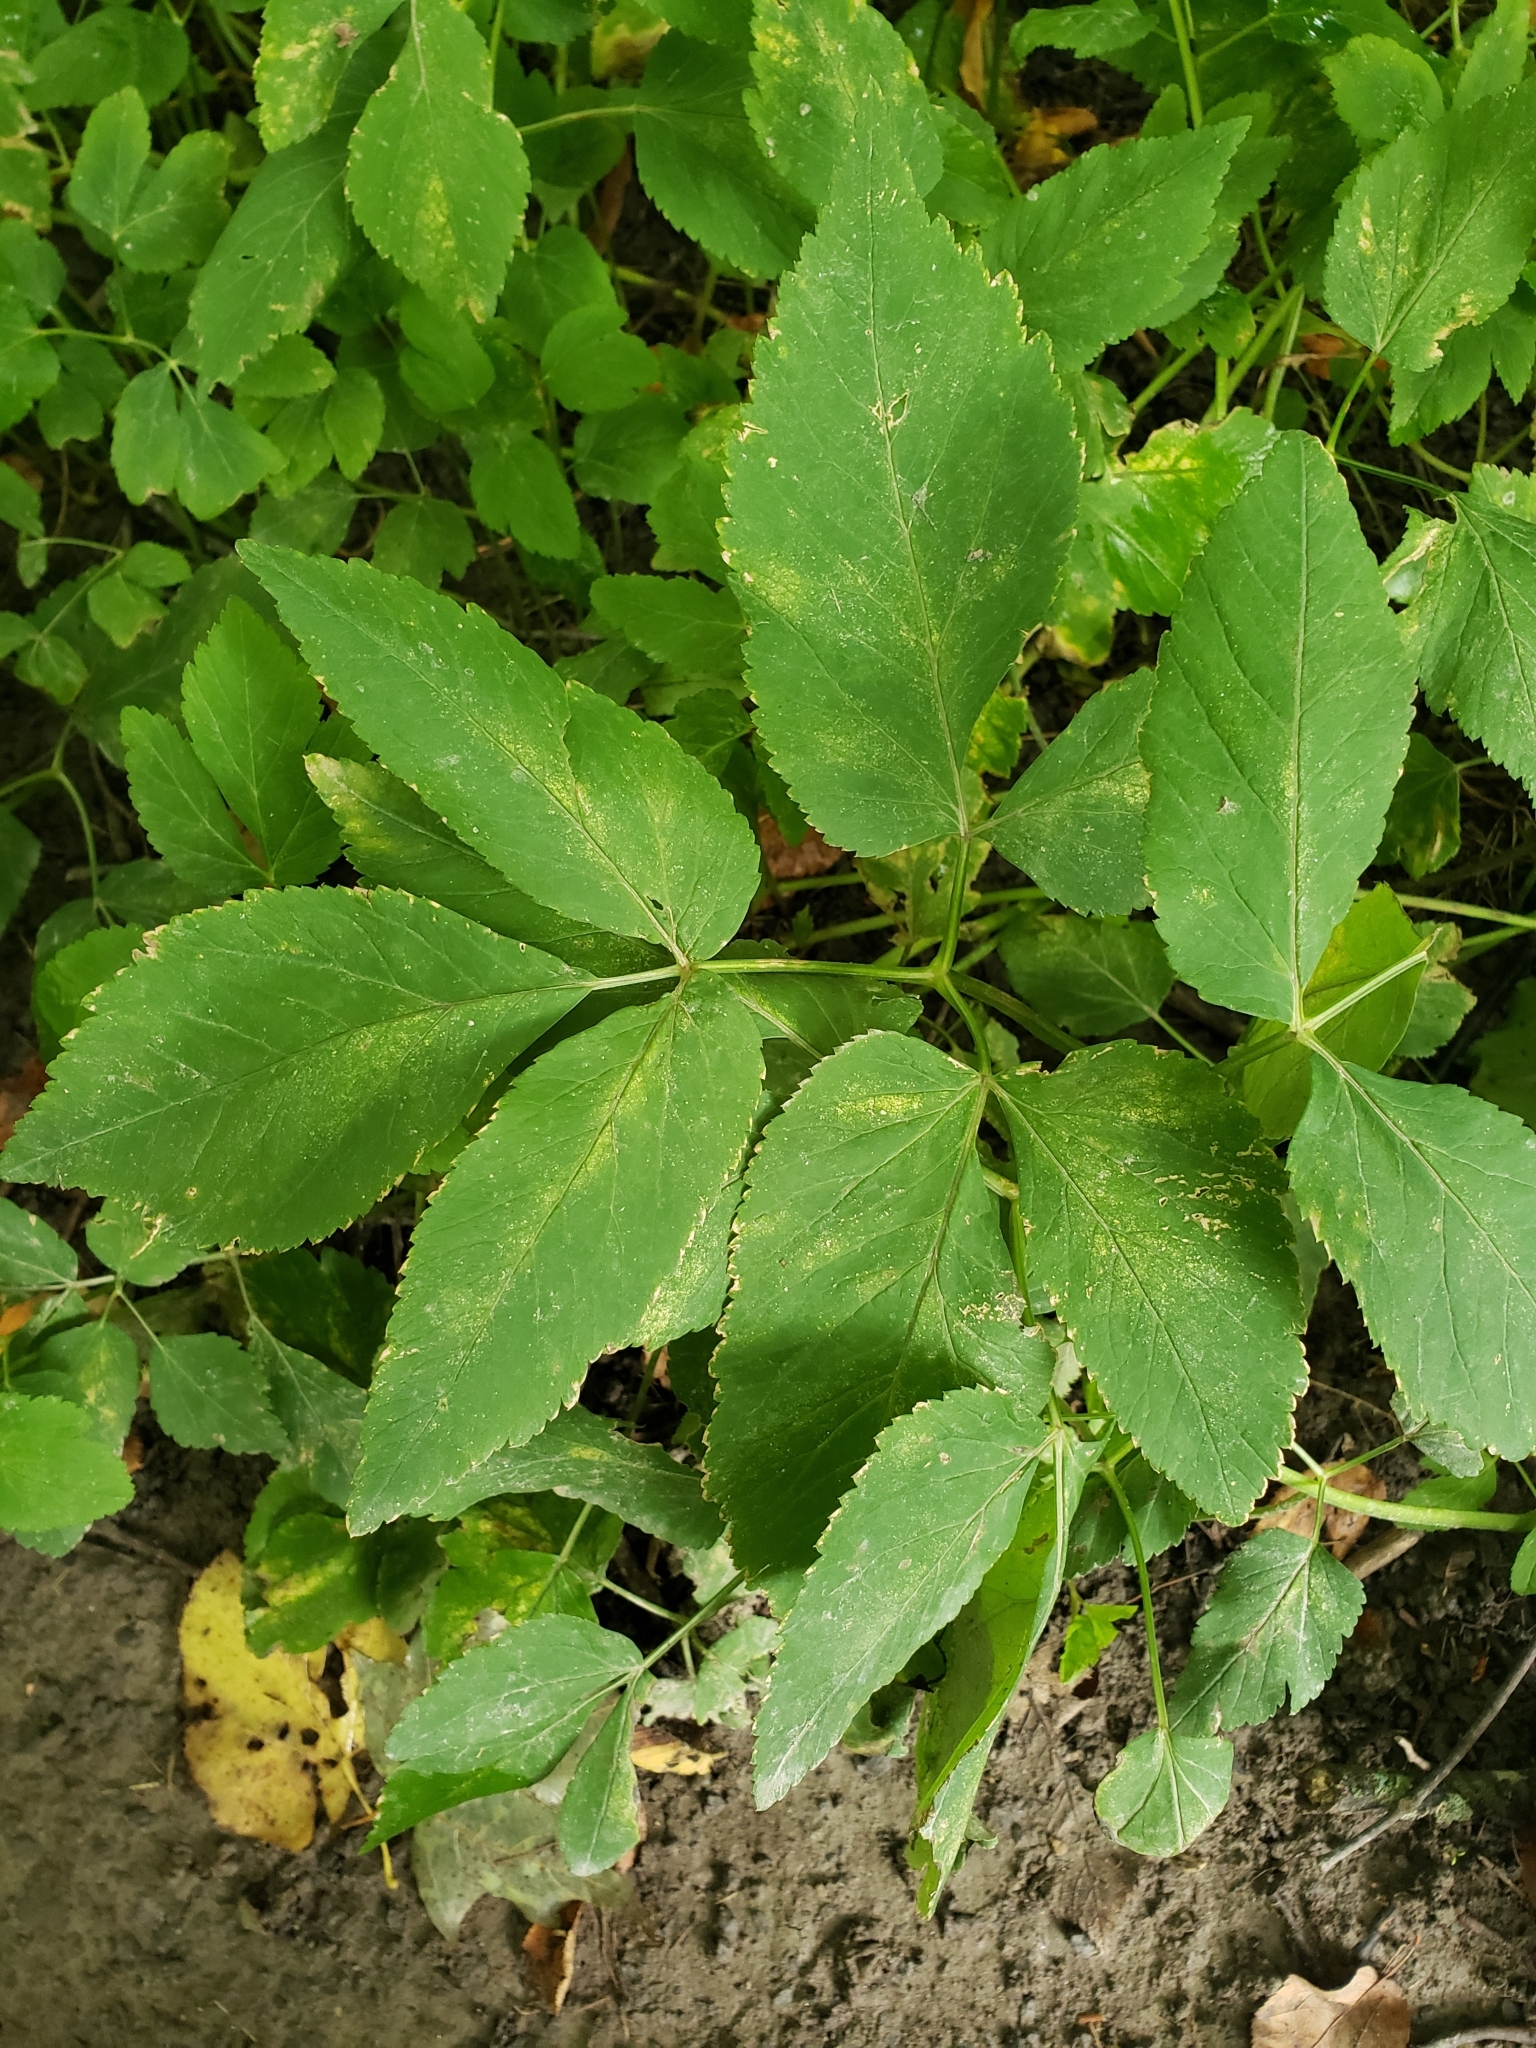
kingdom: Plantae
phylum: Tracheophyta
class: Magnoliopsida
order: Apiales
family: Apiaceae
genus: Aegopodium
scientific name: Aegopodium podagraria
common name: Ground-elder
